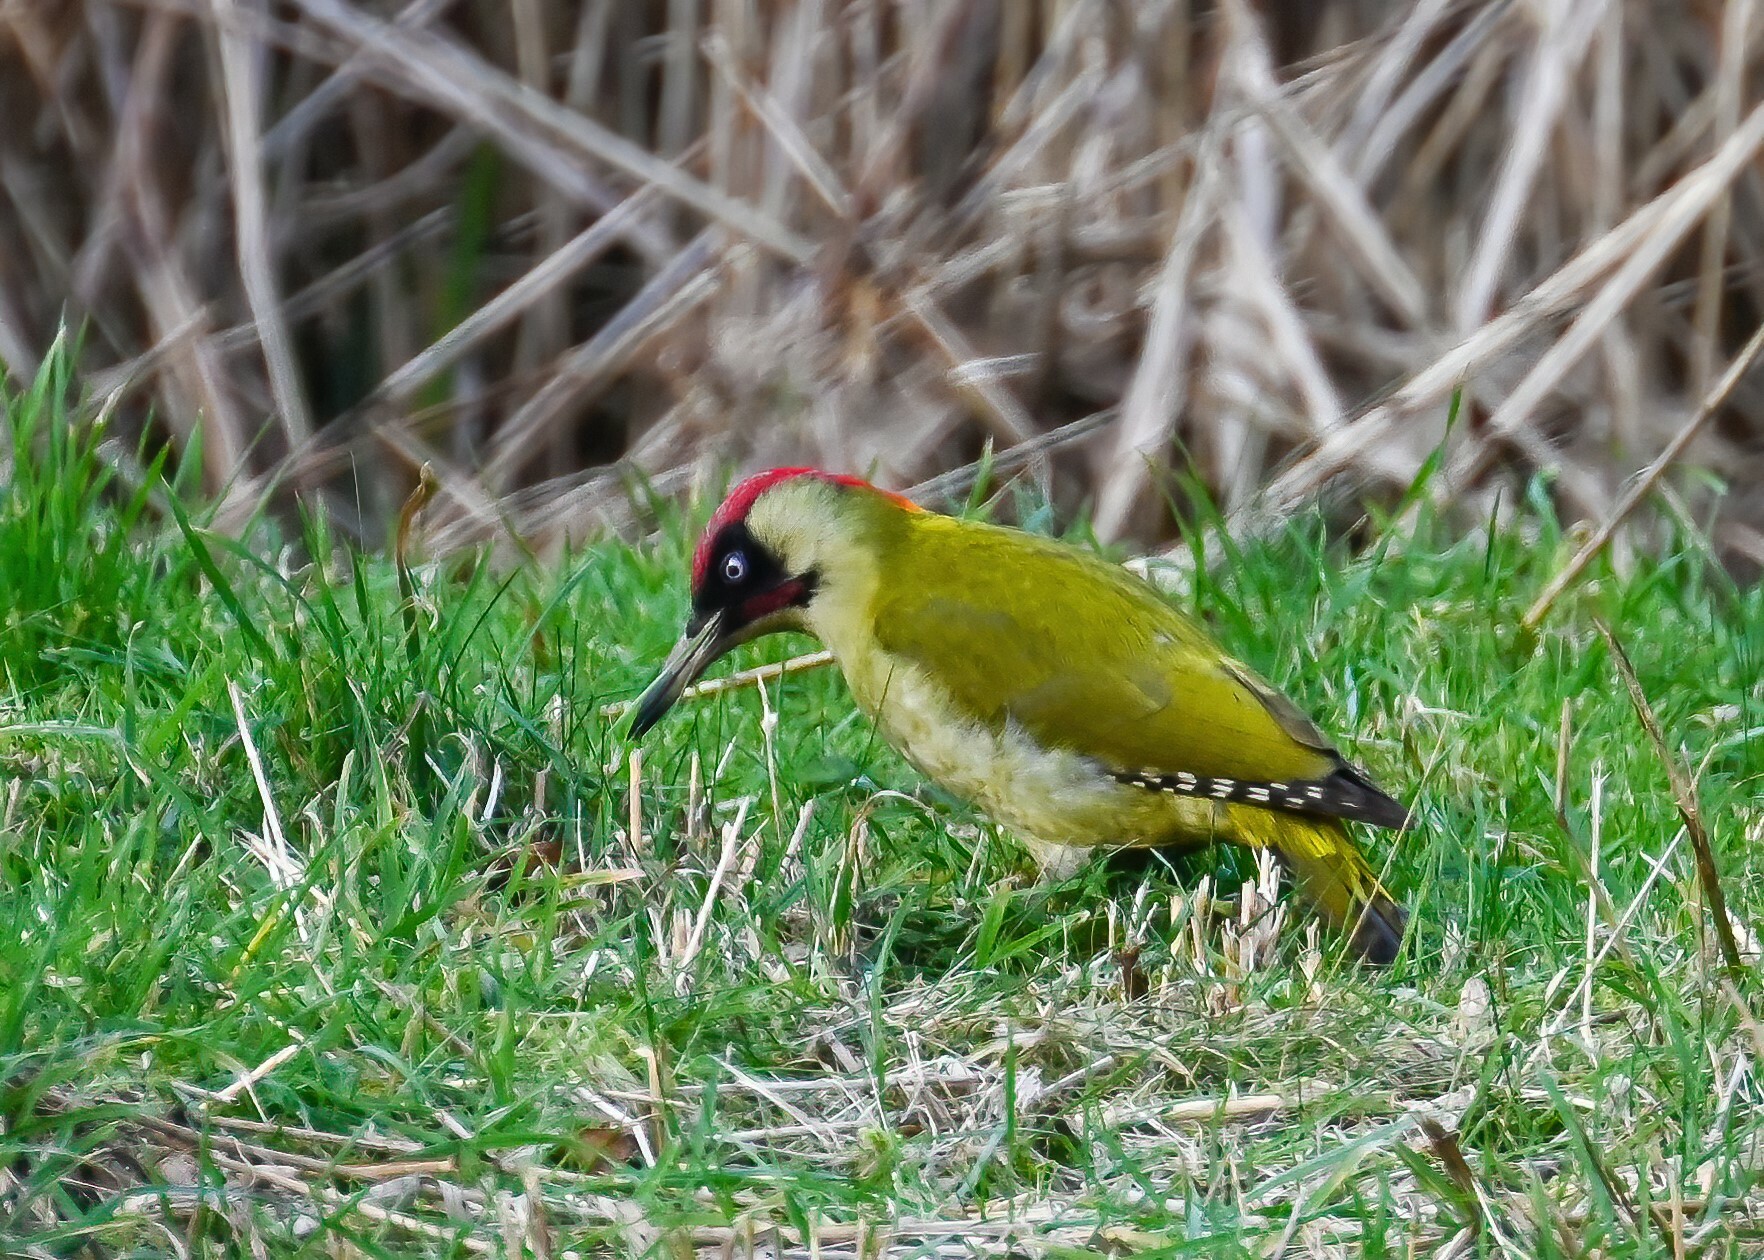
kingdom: Animalia
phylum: Chordata
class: Aves
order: Piciformes
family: Picidae
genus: Picus
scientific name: Picus viridis
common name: European green woodpecker
